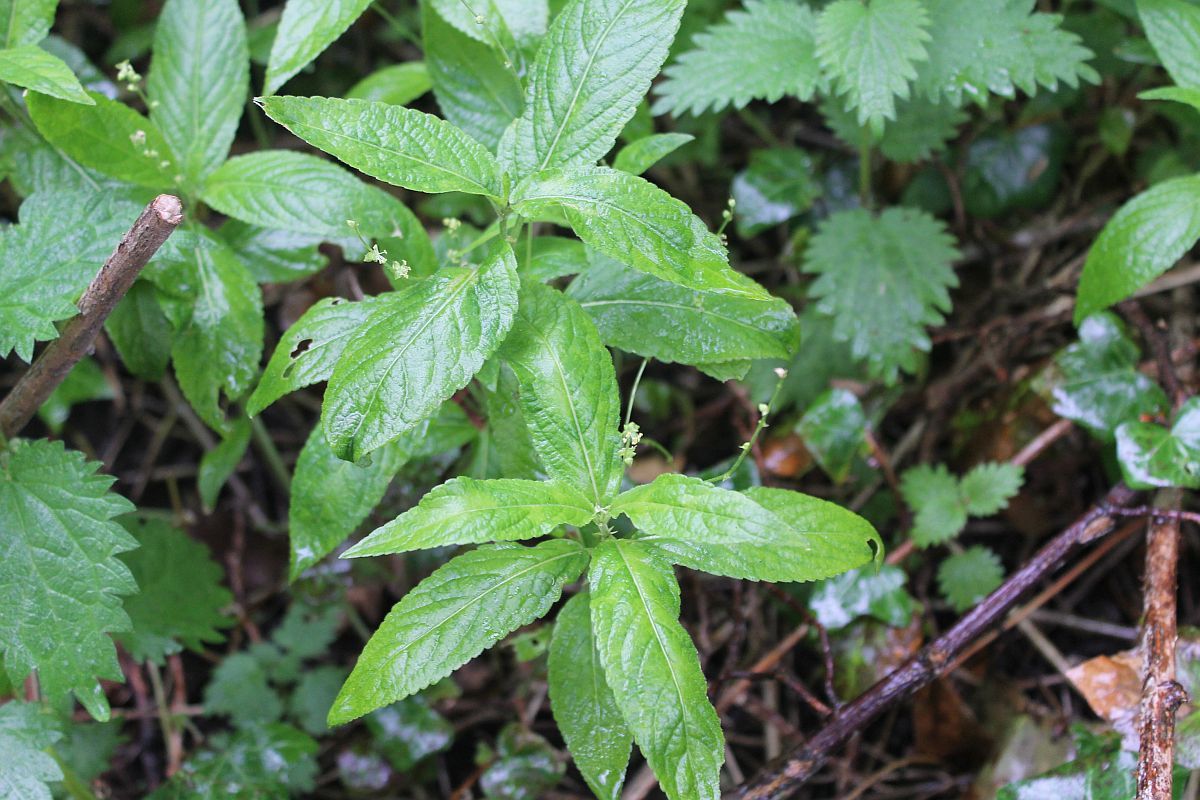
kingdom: Plantae
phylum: Tracheophyta
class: Magnoliopsida
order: Malpighiales
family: Euphorbiaceae
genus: Mercurialis
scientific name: Mercurialis perennis
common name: Dog mercury
